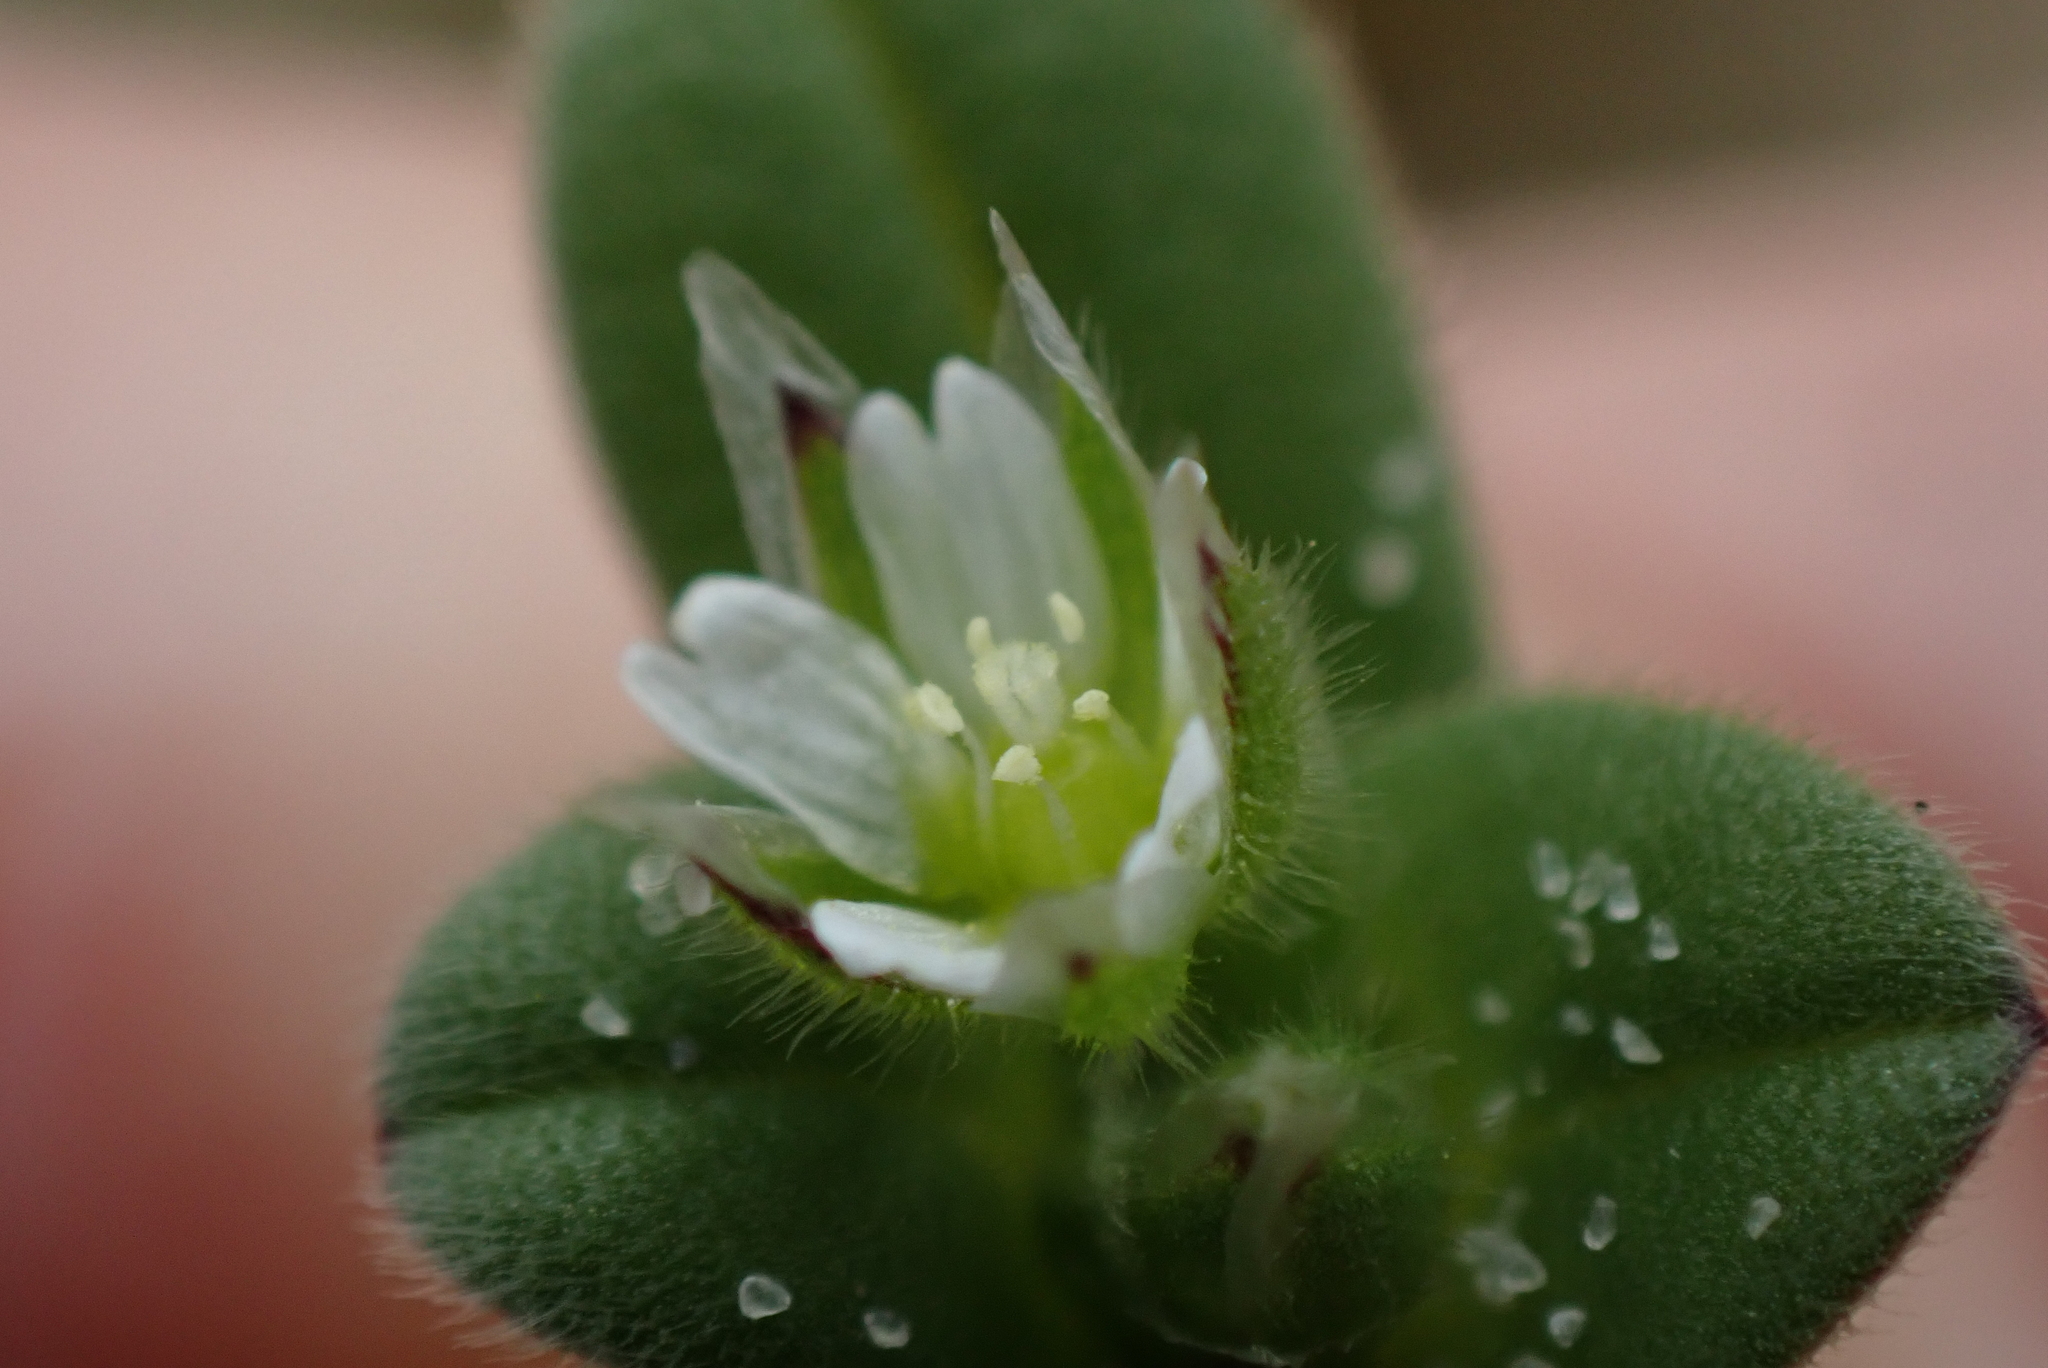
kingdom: Plantae
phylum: Tracheophyta
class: Magnoliopsida
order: Caryophyllales
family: Caryophyllaceae
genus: Cerastium
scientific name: Cerastium semidecandrum
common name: Little mouse-ear
